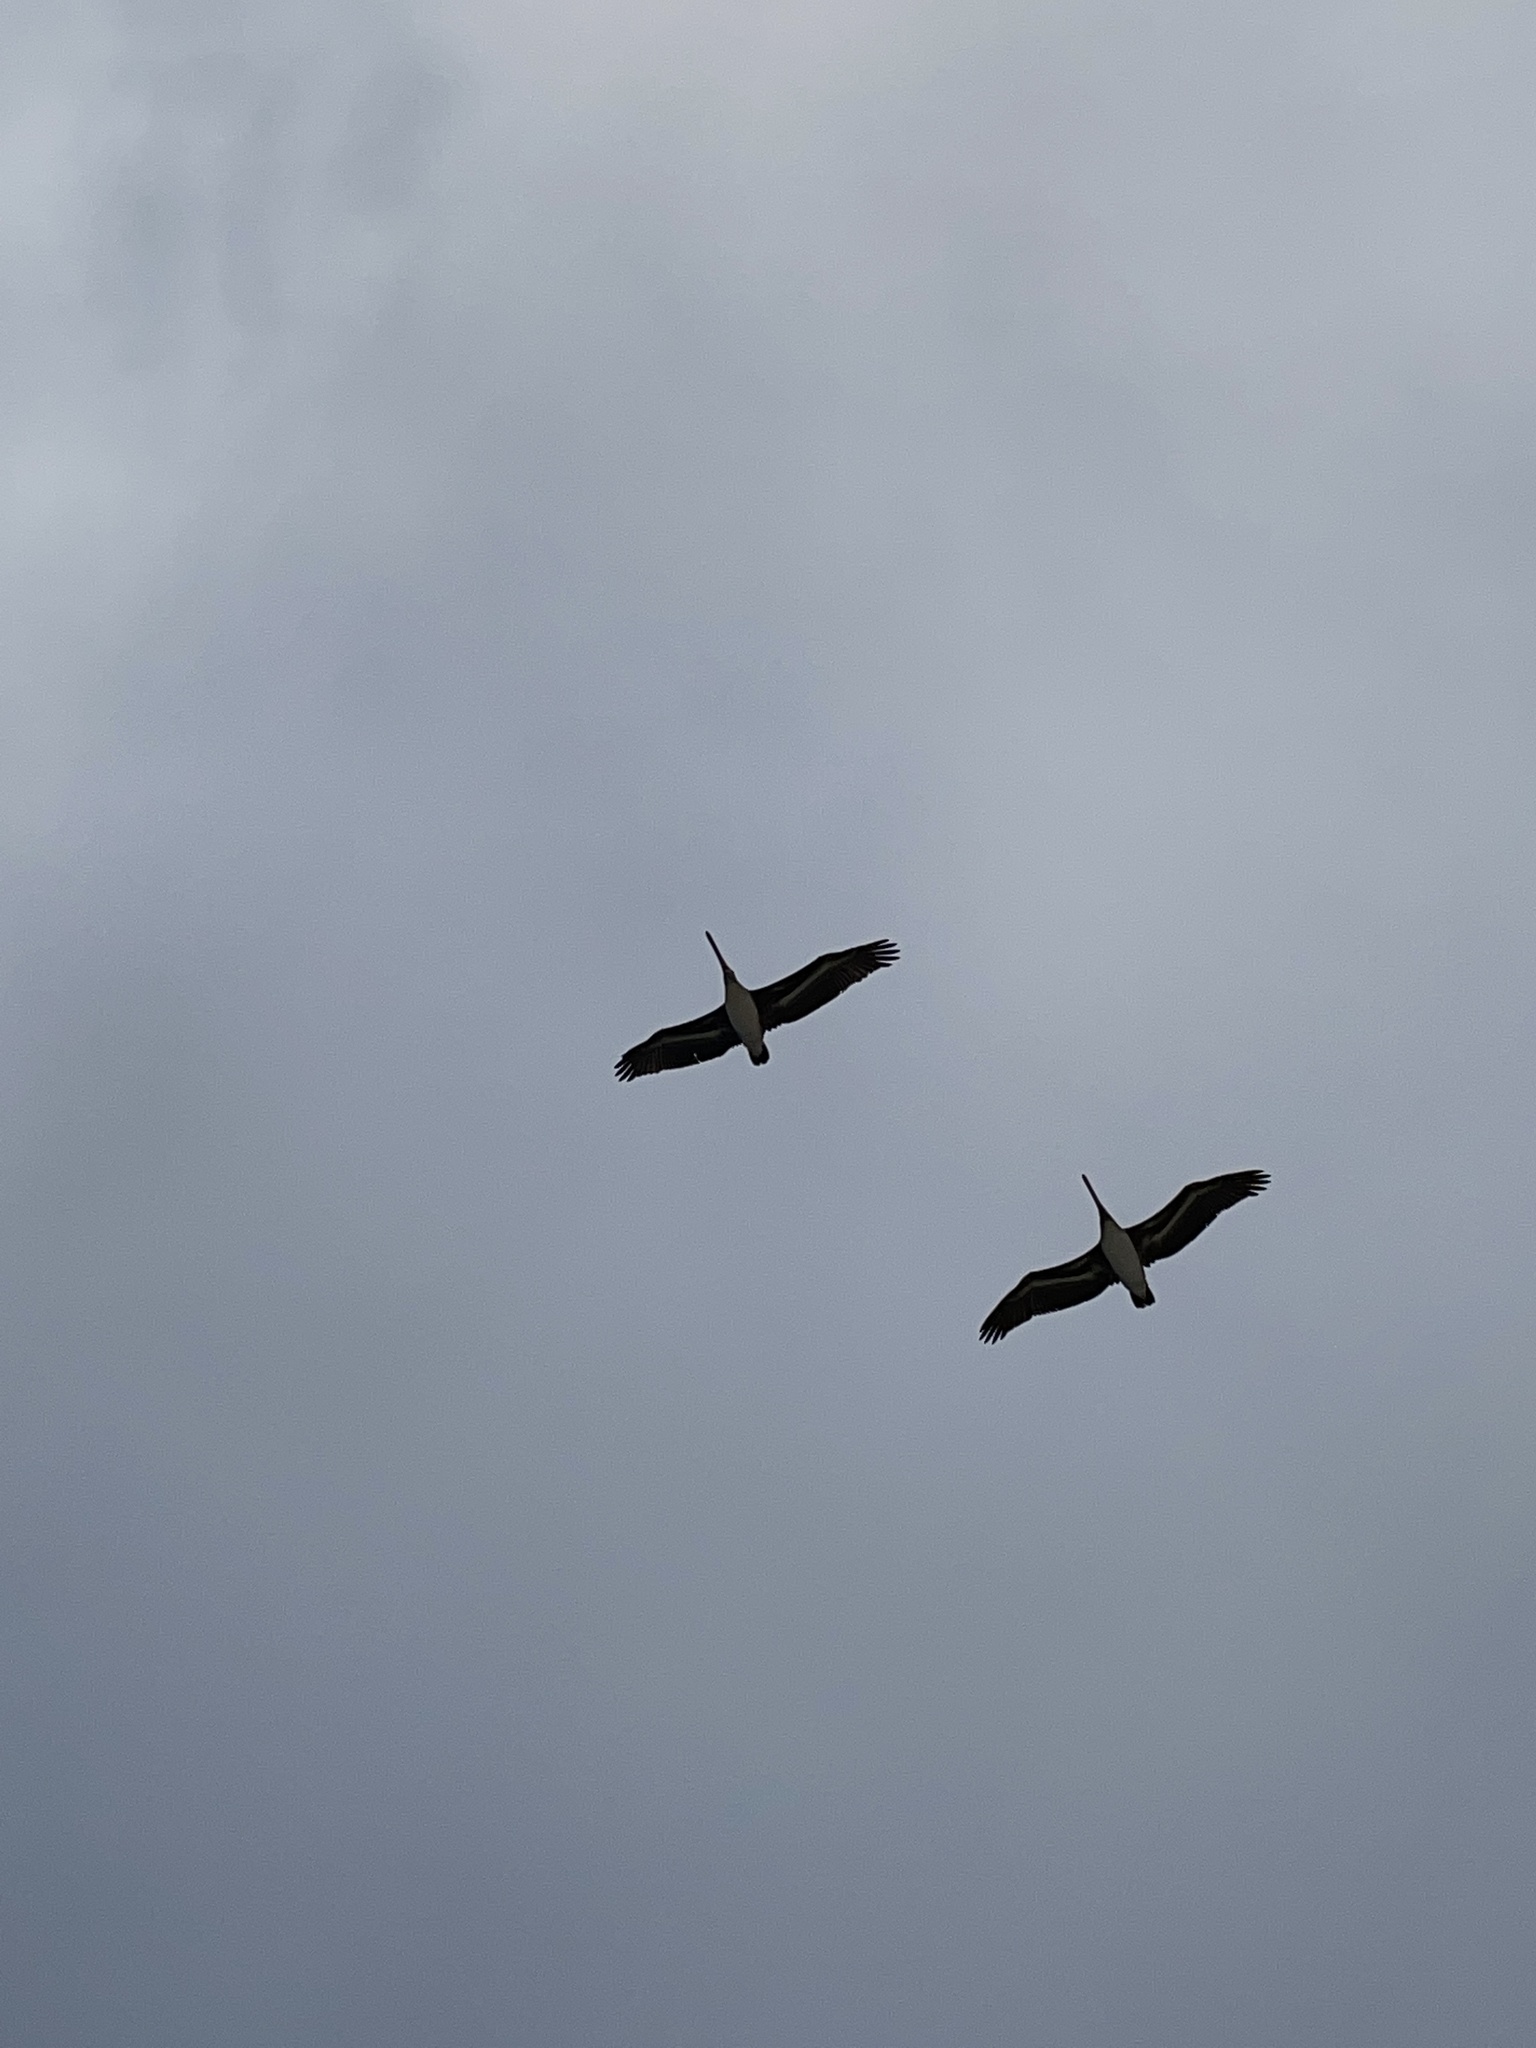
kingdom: Animalia
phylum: Chordata
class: Aves
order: Pelecaniformes
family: Pelecanidae
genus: Pelecanus
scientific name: Pelecanus occidentalis
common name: Brown pelican
